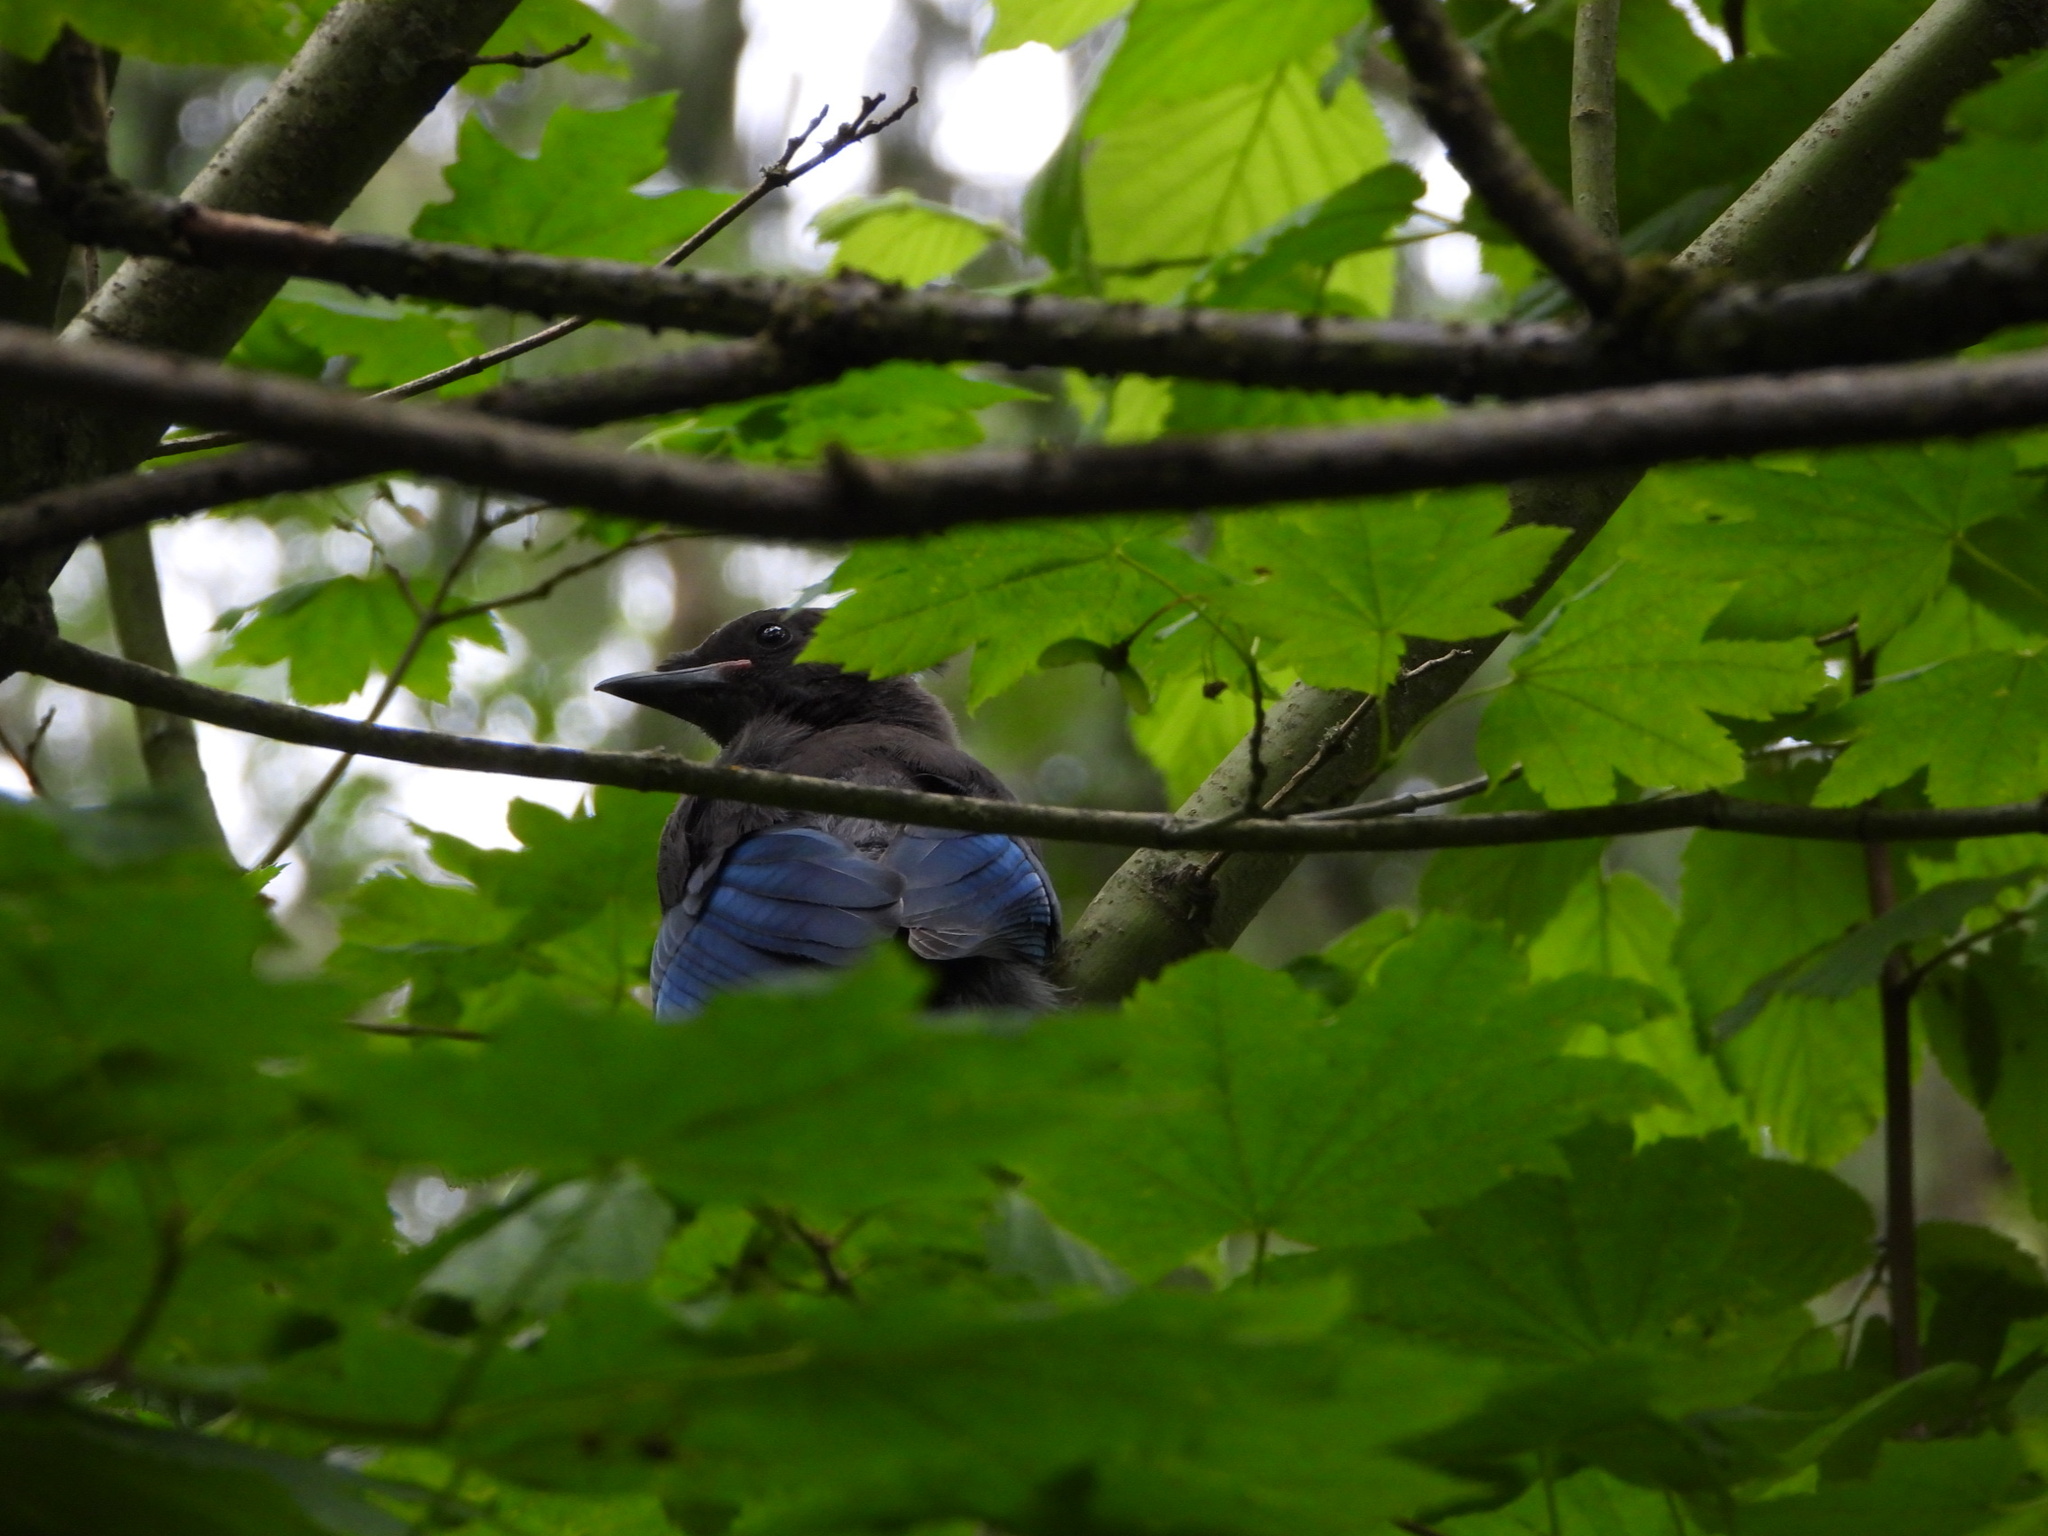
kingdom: Animalia
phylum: Chordata
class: Aves
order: Passeriformes
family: Corvidae
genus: Cyanocitta
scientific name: Cyanocitta stelleri
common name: Steller's jay
